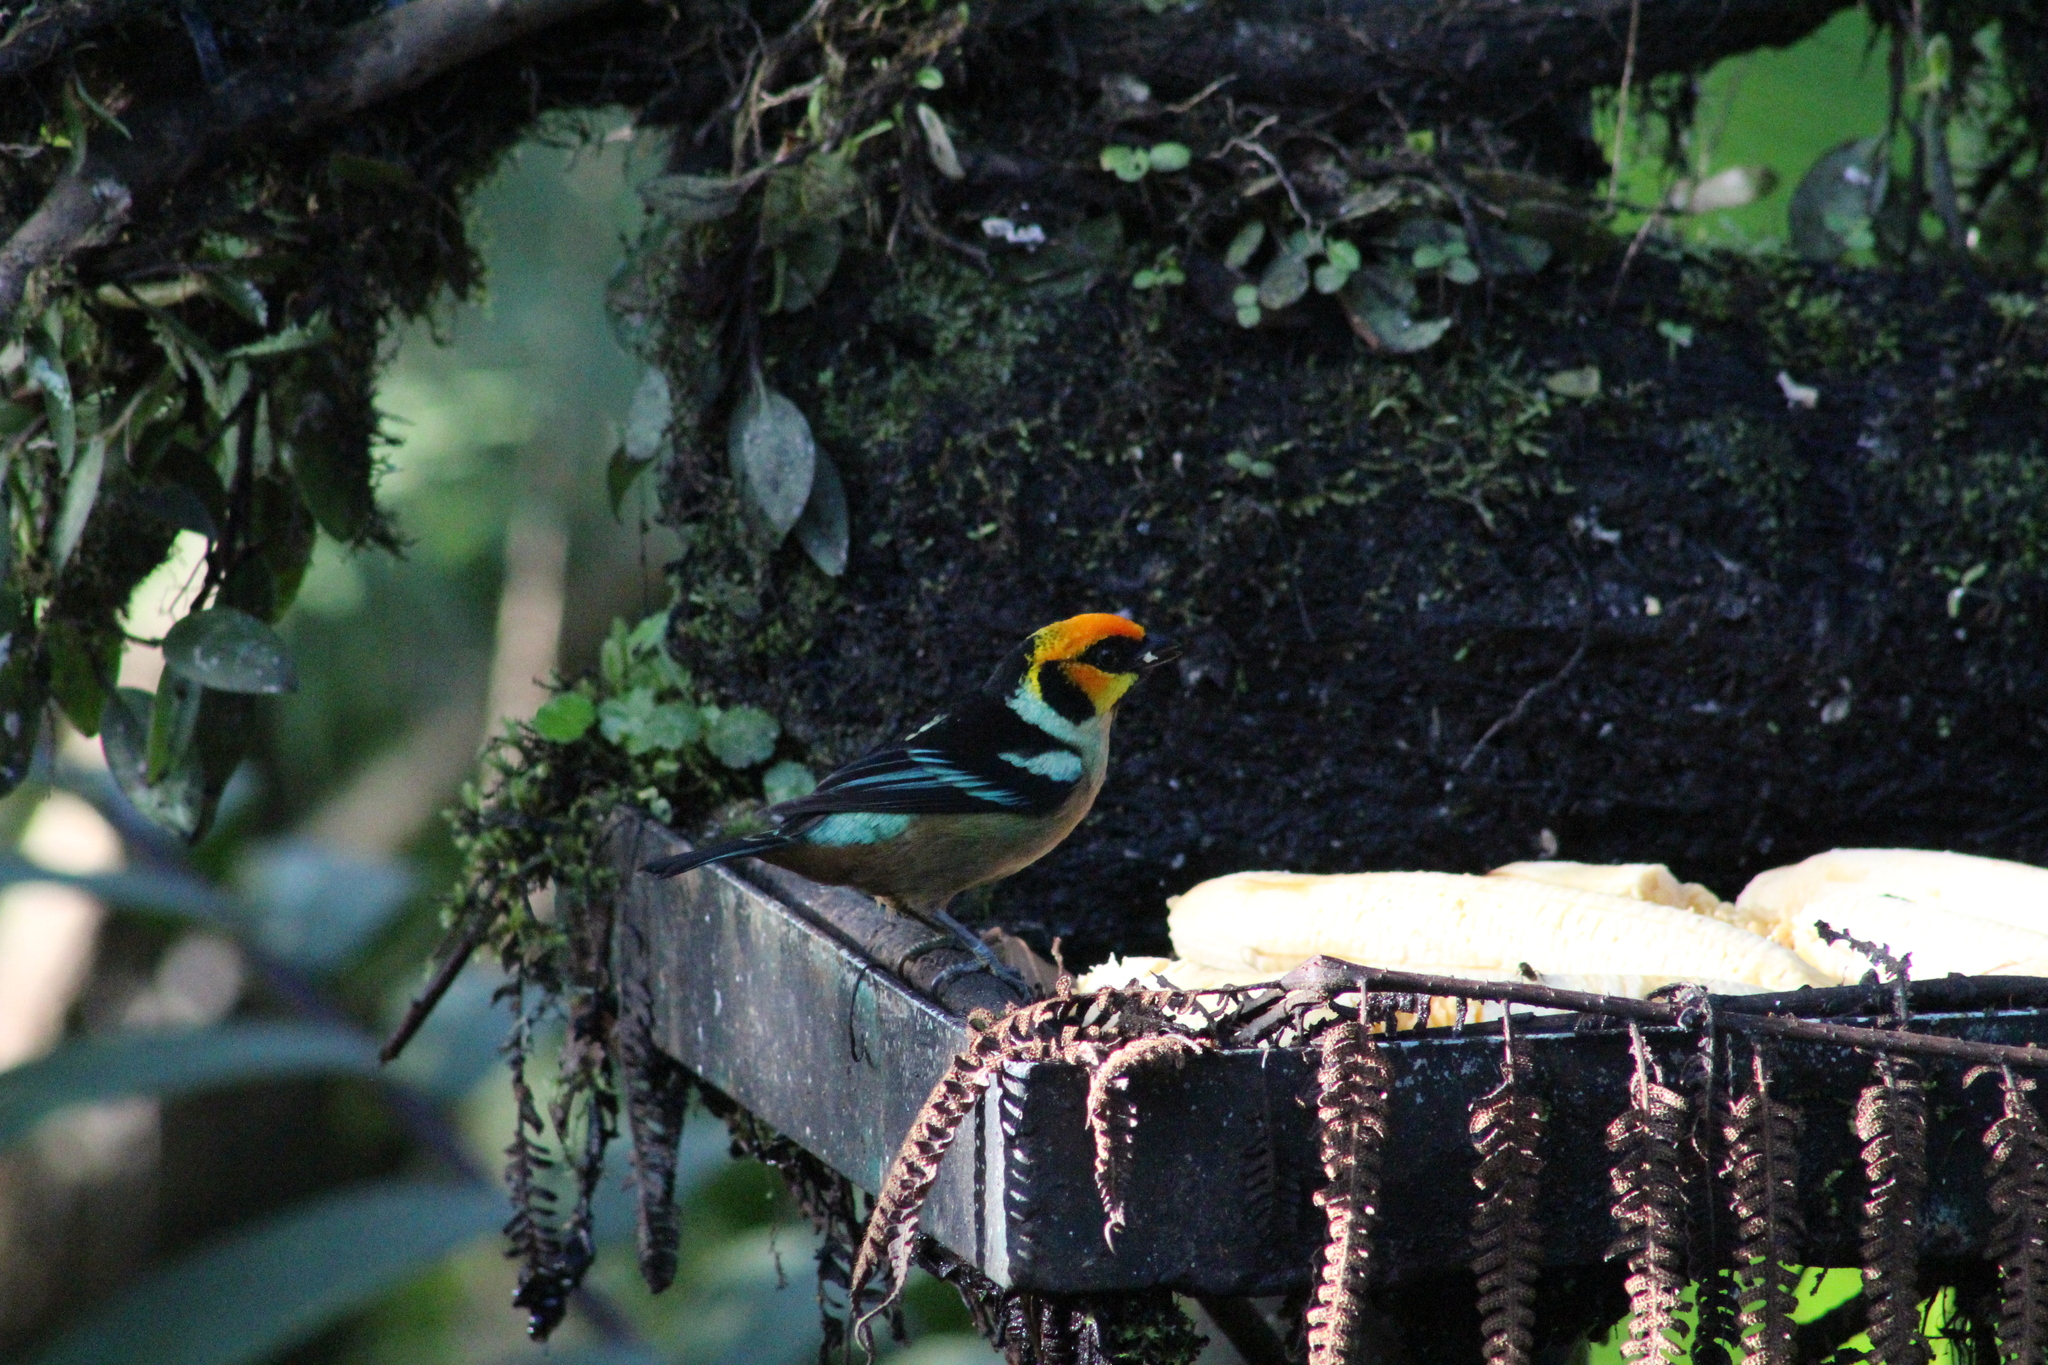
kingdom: Animalia
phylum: Chordata
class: Aves
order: Passeriformes
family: Thraupidae
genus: Tangara
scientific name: Tangara parzudakii
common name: Flame-faced tanager
